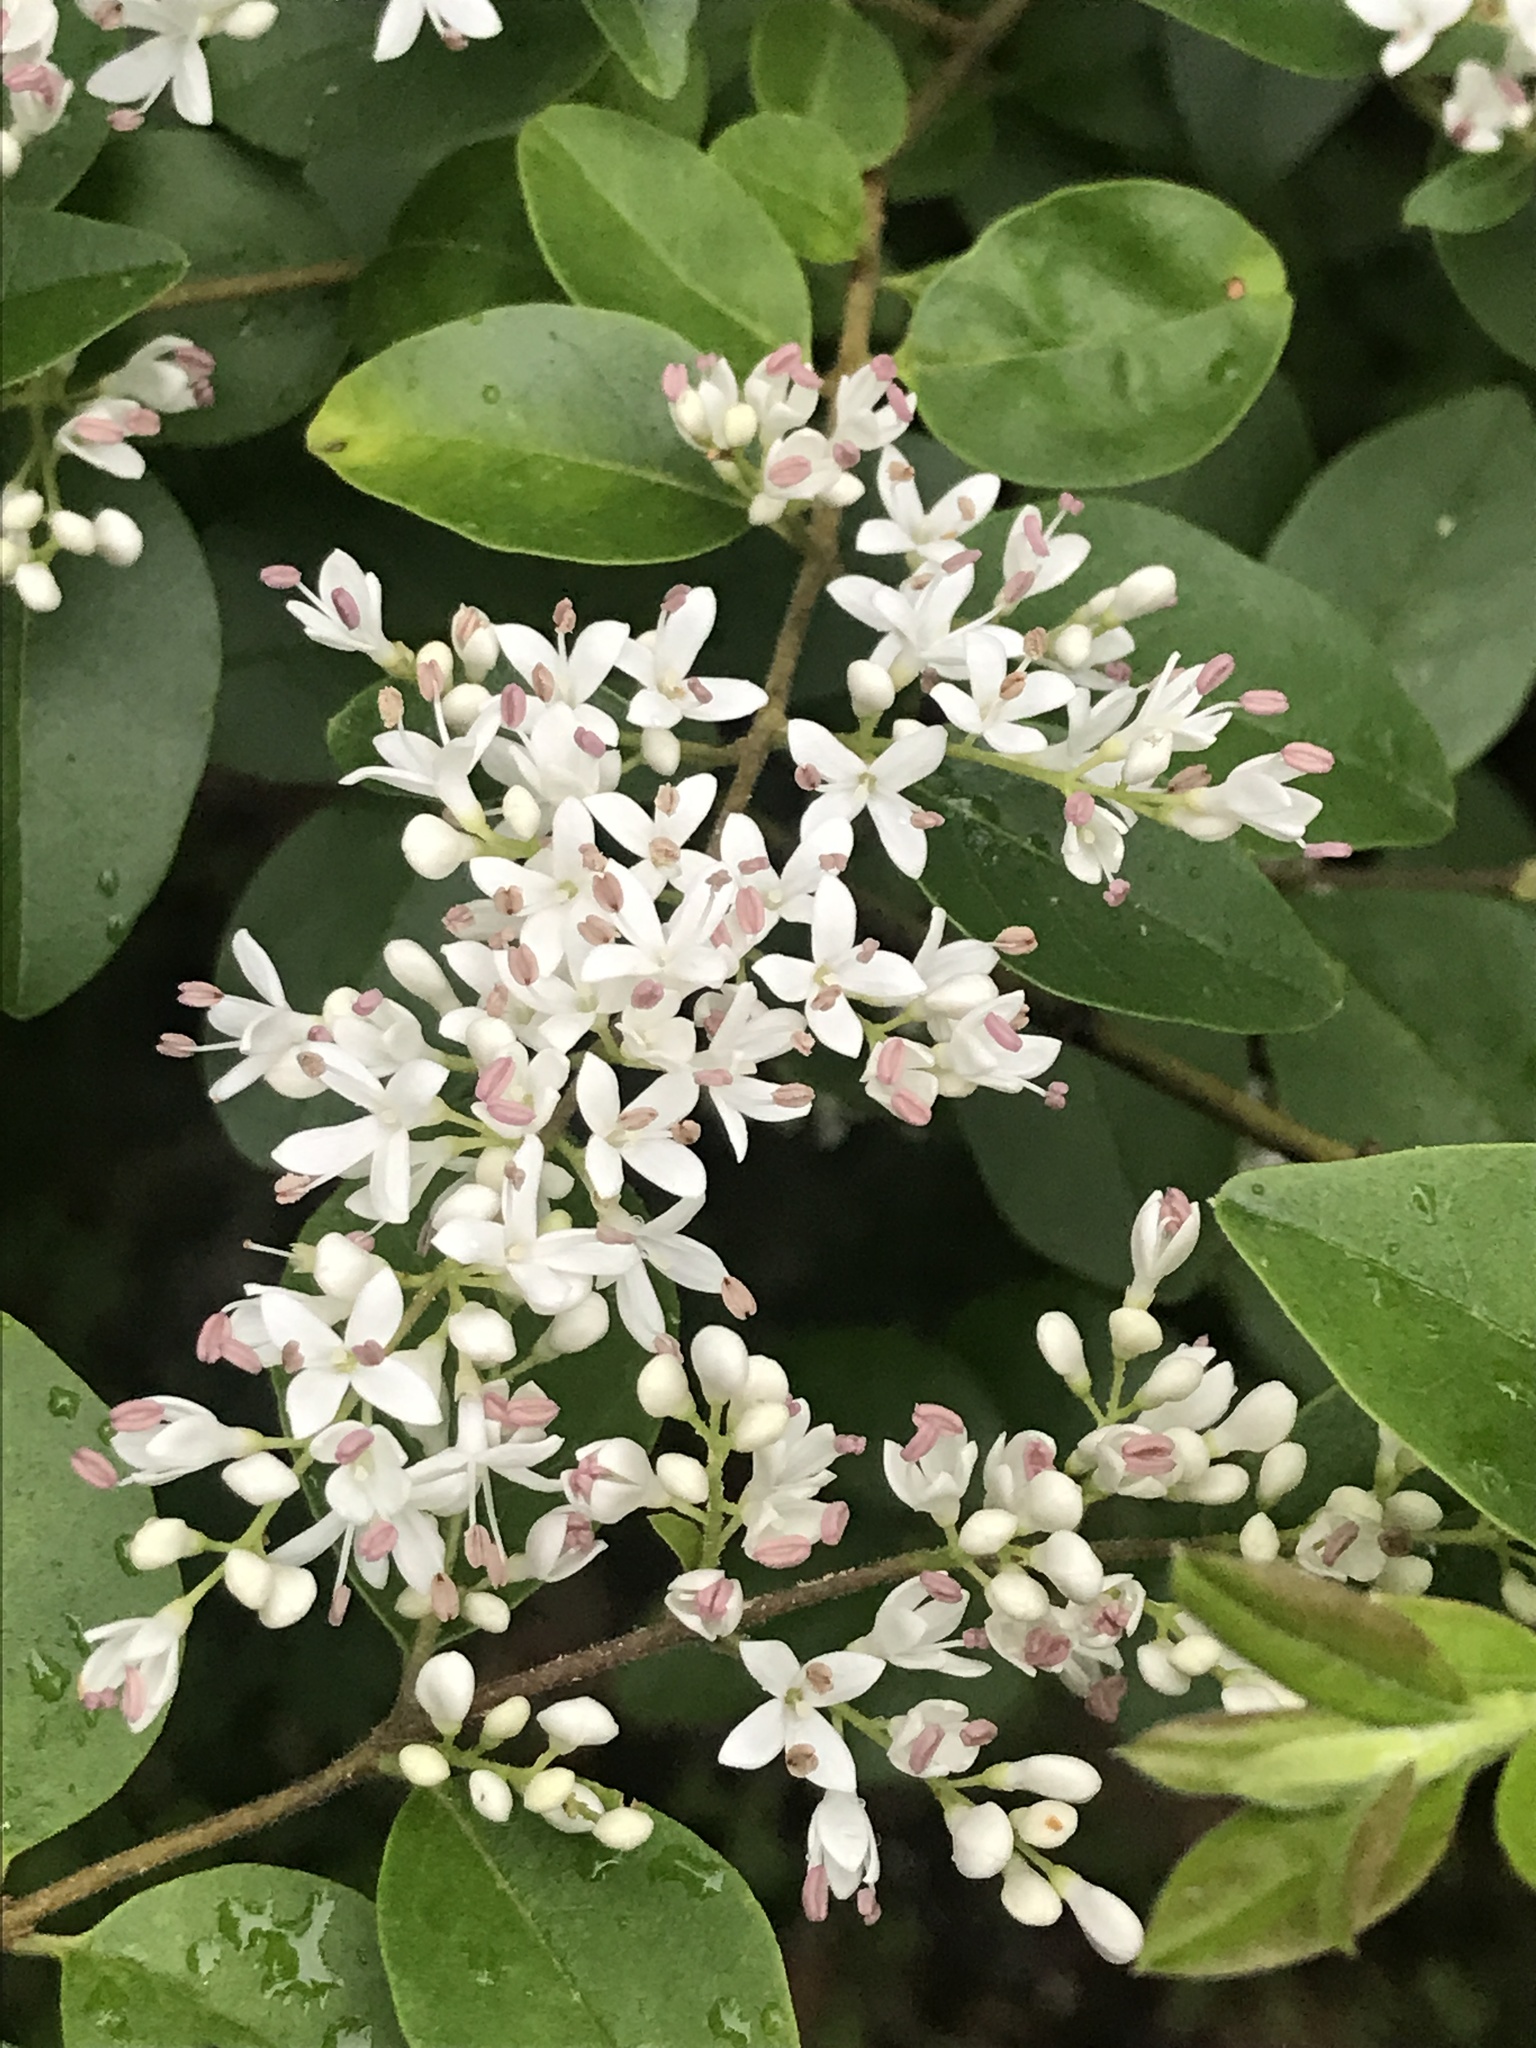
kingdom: Plantae
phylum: Tracheophyta
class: Magnoliopsida
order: Lamiales
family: Oleaceae
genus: Ligustrum
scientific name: Ligustrum sinense
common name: Chinese privet
